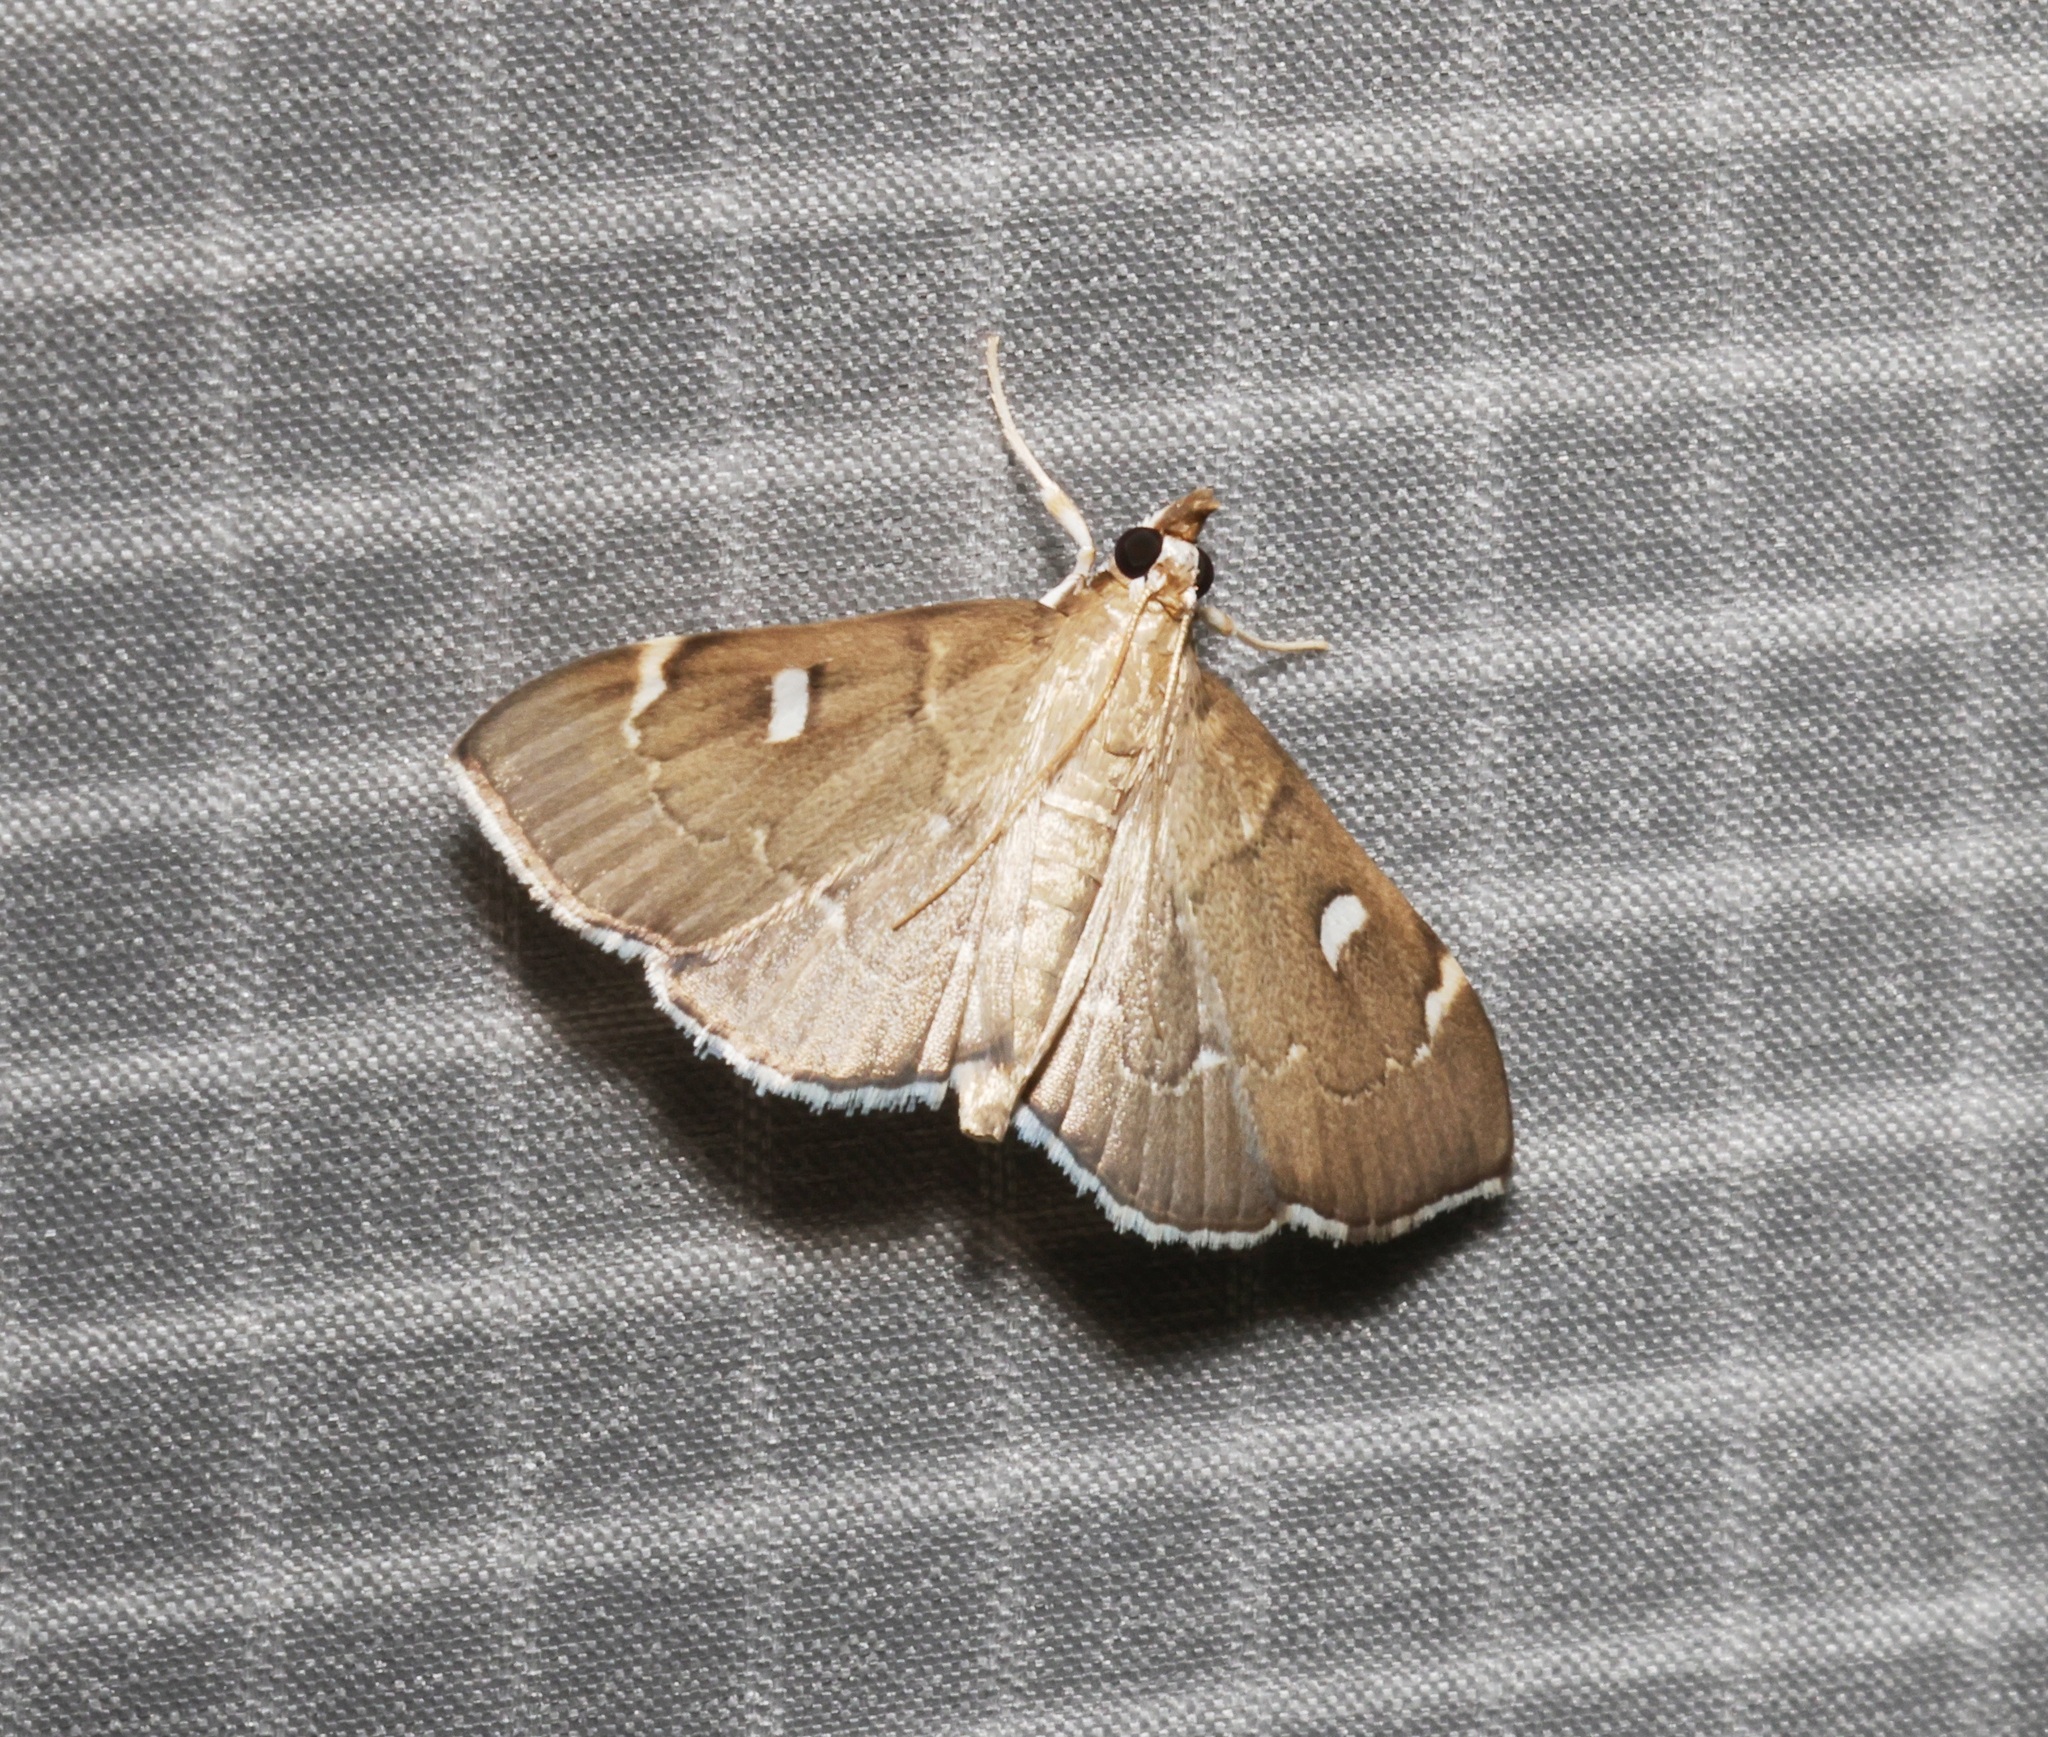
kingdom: Animalia
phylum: Arthropoda
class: Insecta
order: Lepidoptera
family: Crambidae
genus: Protonoceras
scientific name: Protonoceras capitalis
